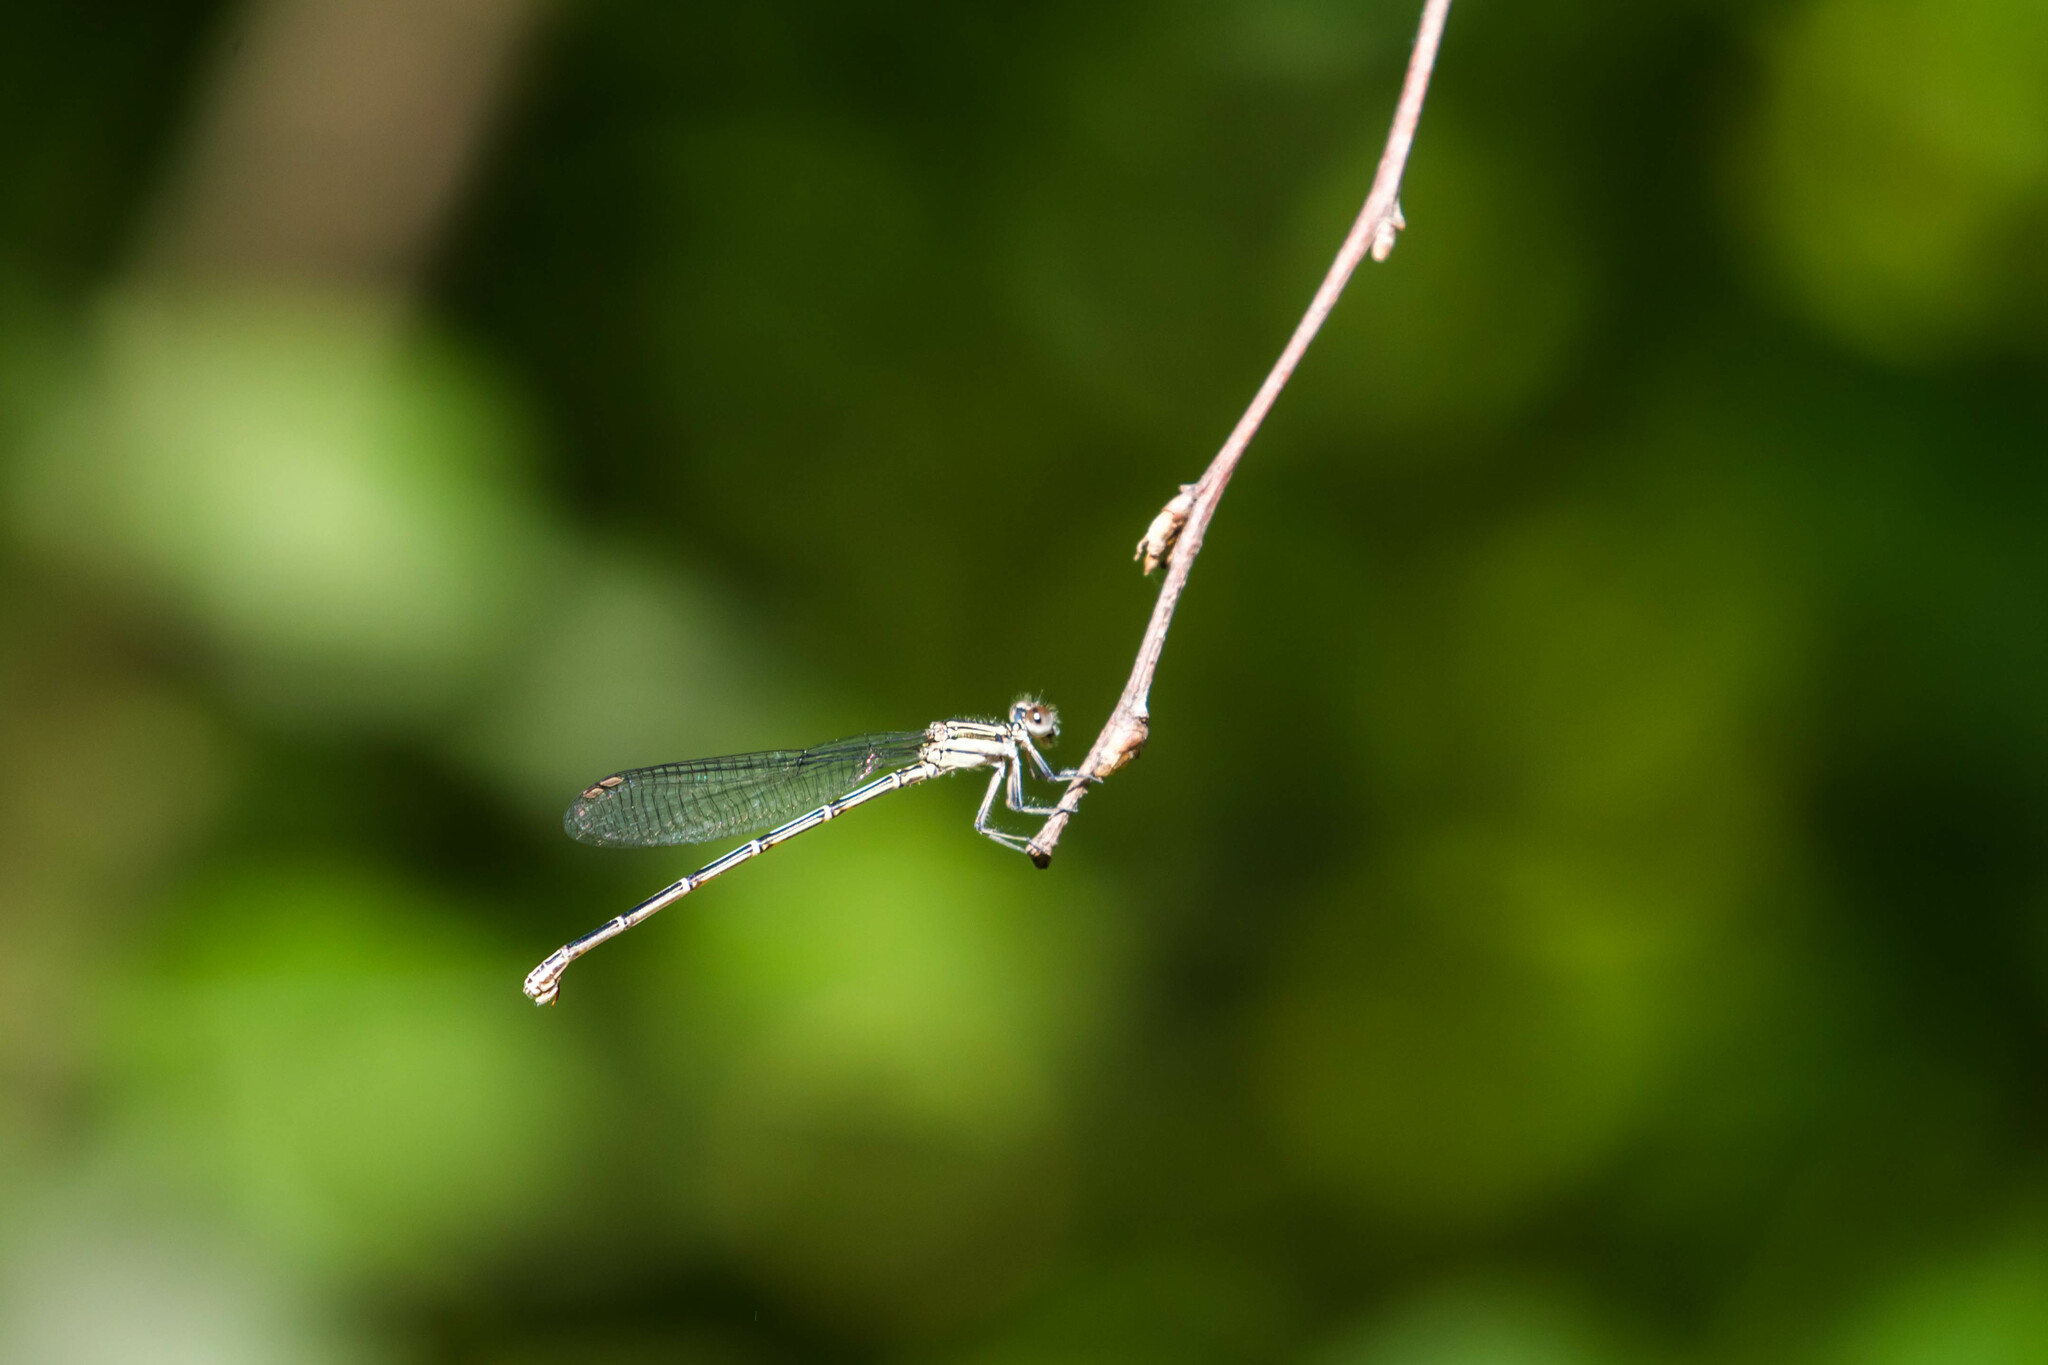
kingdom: Animalia
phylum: Arthropoda
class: Insecta
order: Odonata
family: Coenagrionidae
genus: Argia
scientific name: Argia translata
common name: Dusky dancer
